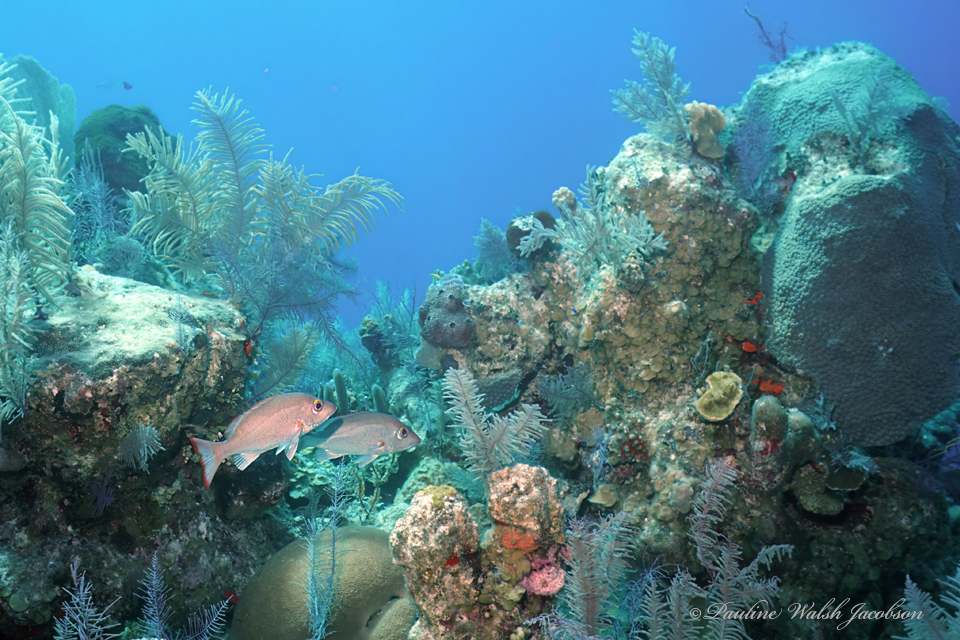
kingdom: Animalia
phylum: Chordata
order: Perciformes
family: Lutjanidae
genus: Lutjanus
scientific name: Lutjanus mahogoni
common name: Spot snapper
